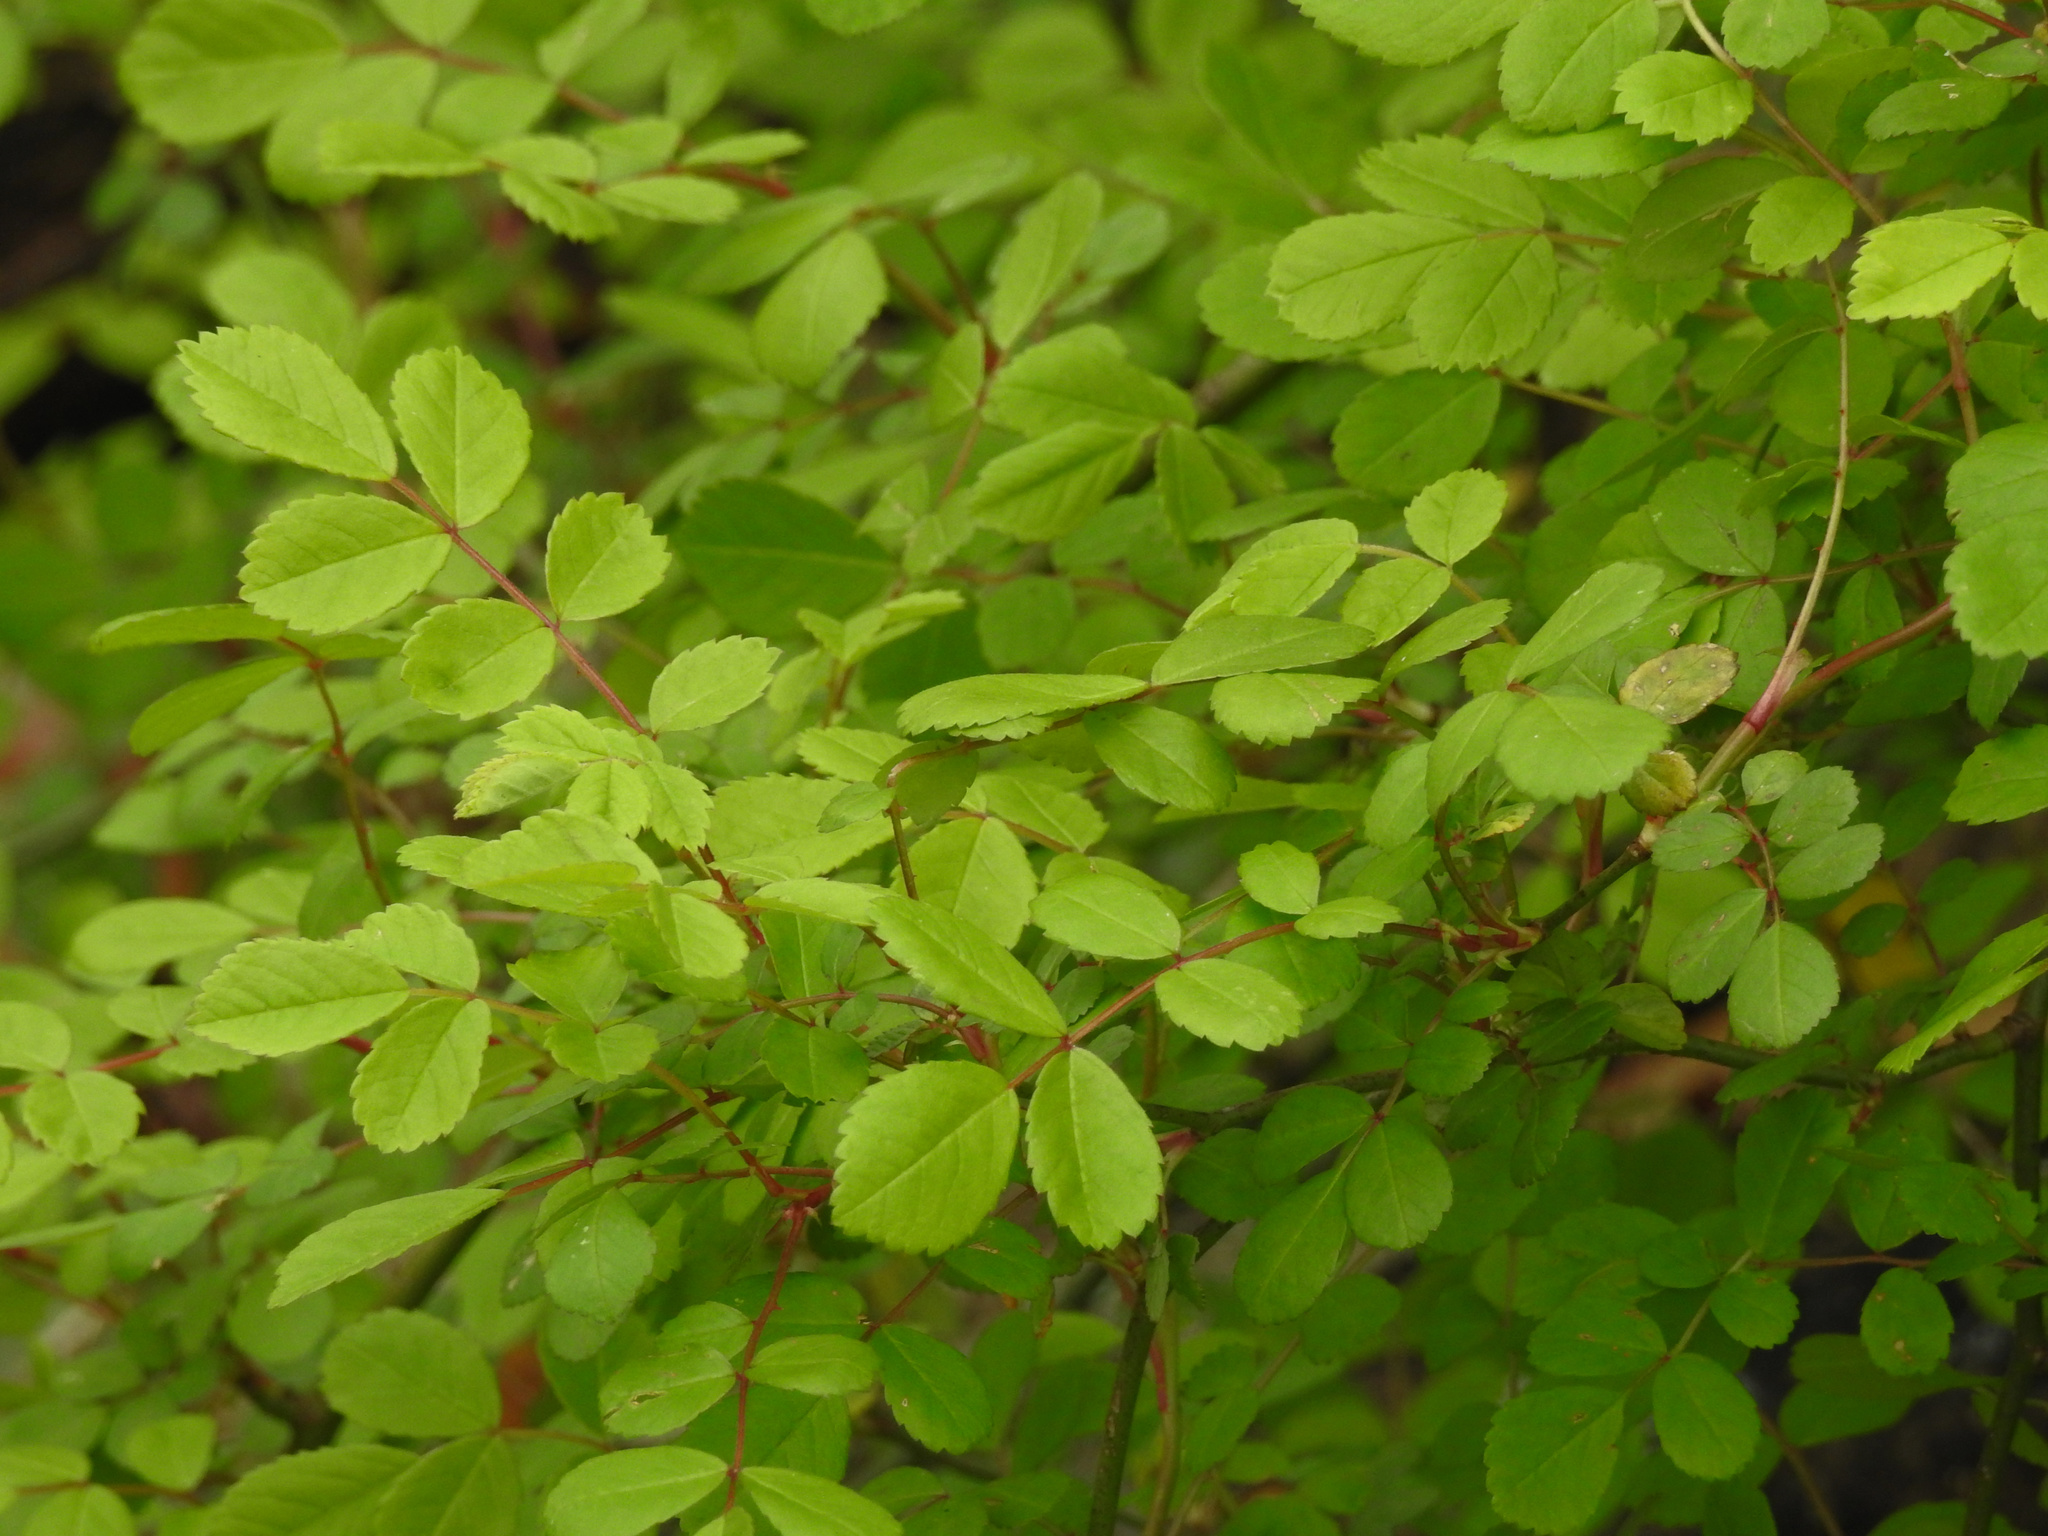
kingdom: Plantae
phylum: Tracheophyta
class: Magnoliopsida
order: Rosales
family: Rosaceae
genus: Rosa
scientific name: Rosa multiflora
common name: Multiflora rose
